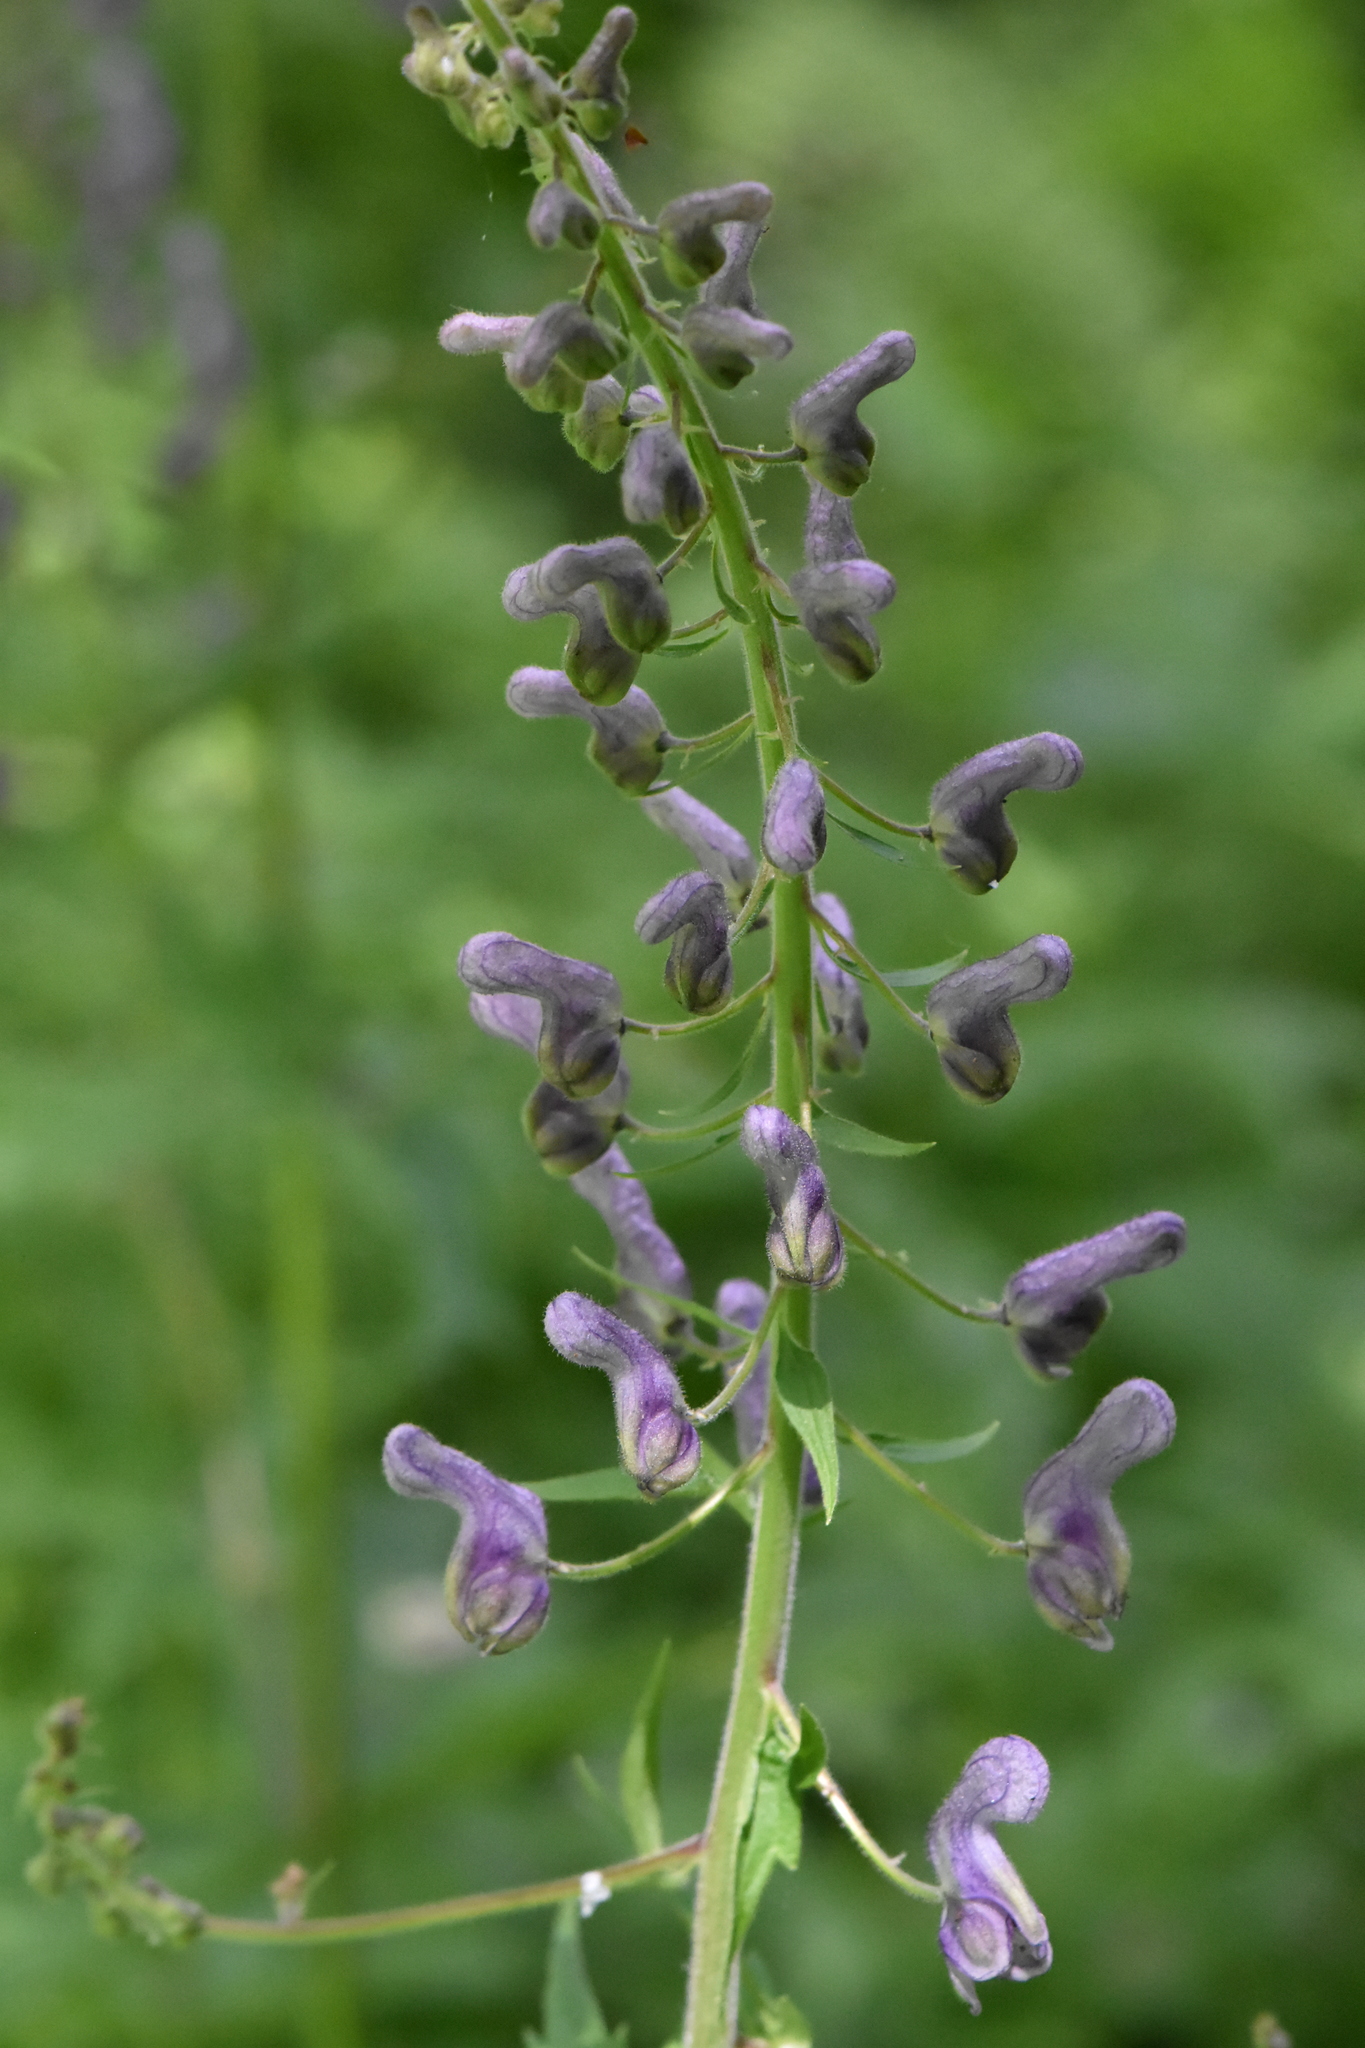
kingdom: Plantae
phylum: Tracheophyta
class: Magnoliopsida
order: Ranunculales
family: Ranunculaceae
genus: Aconitum
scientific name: Aconitum septentrionale
